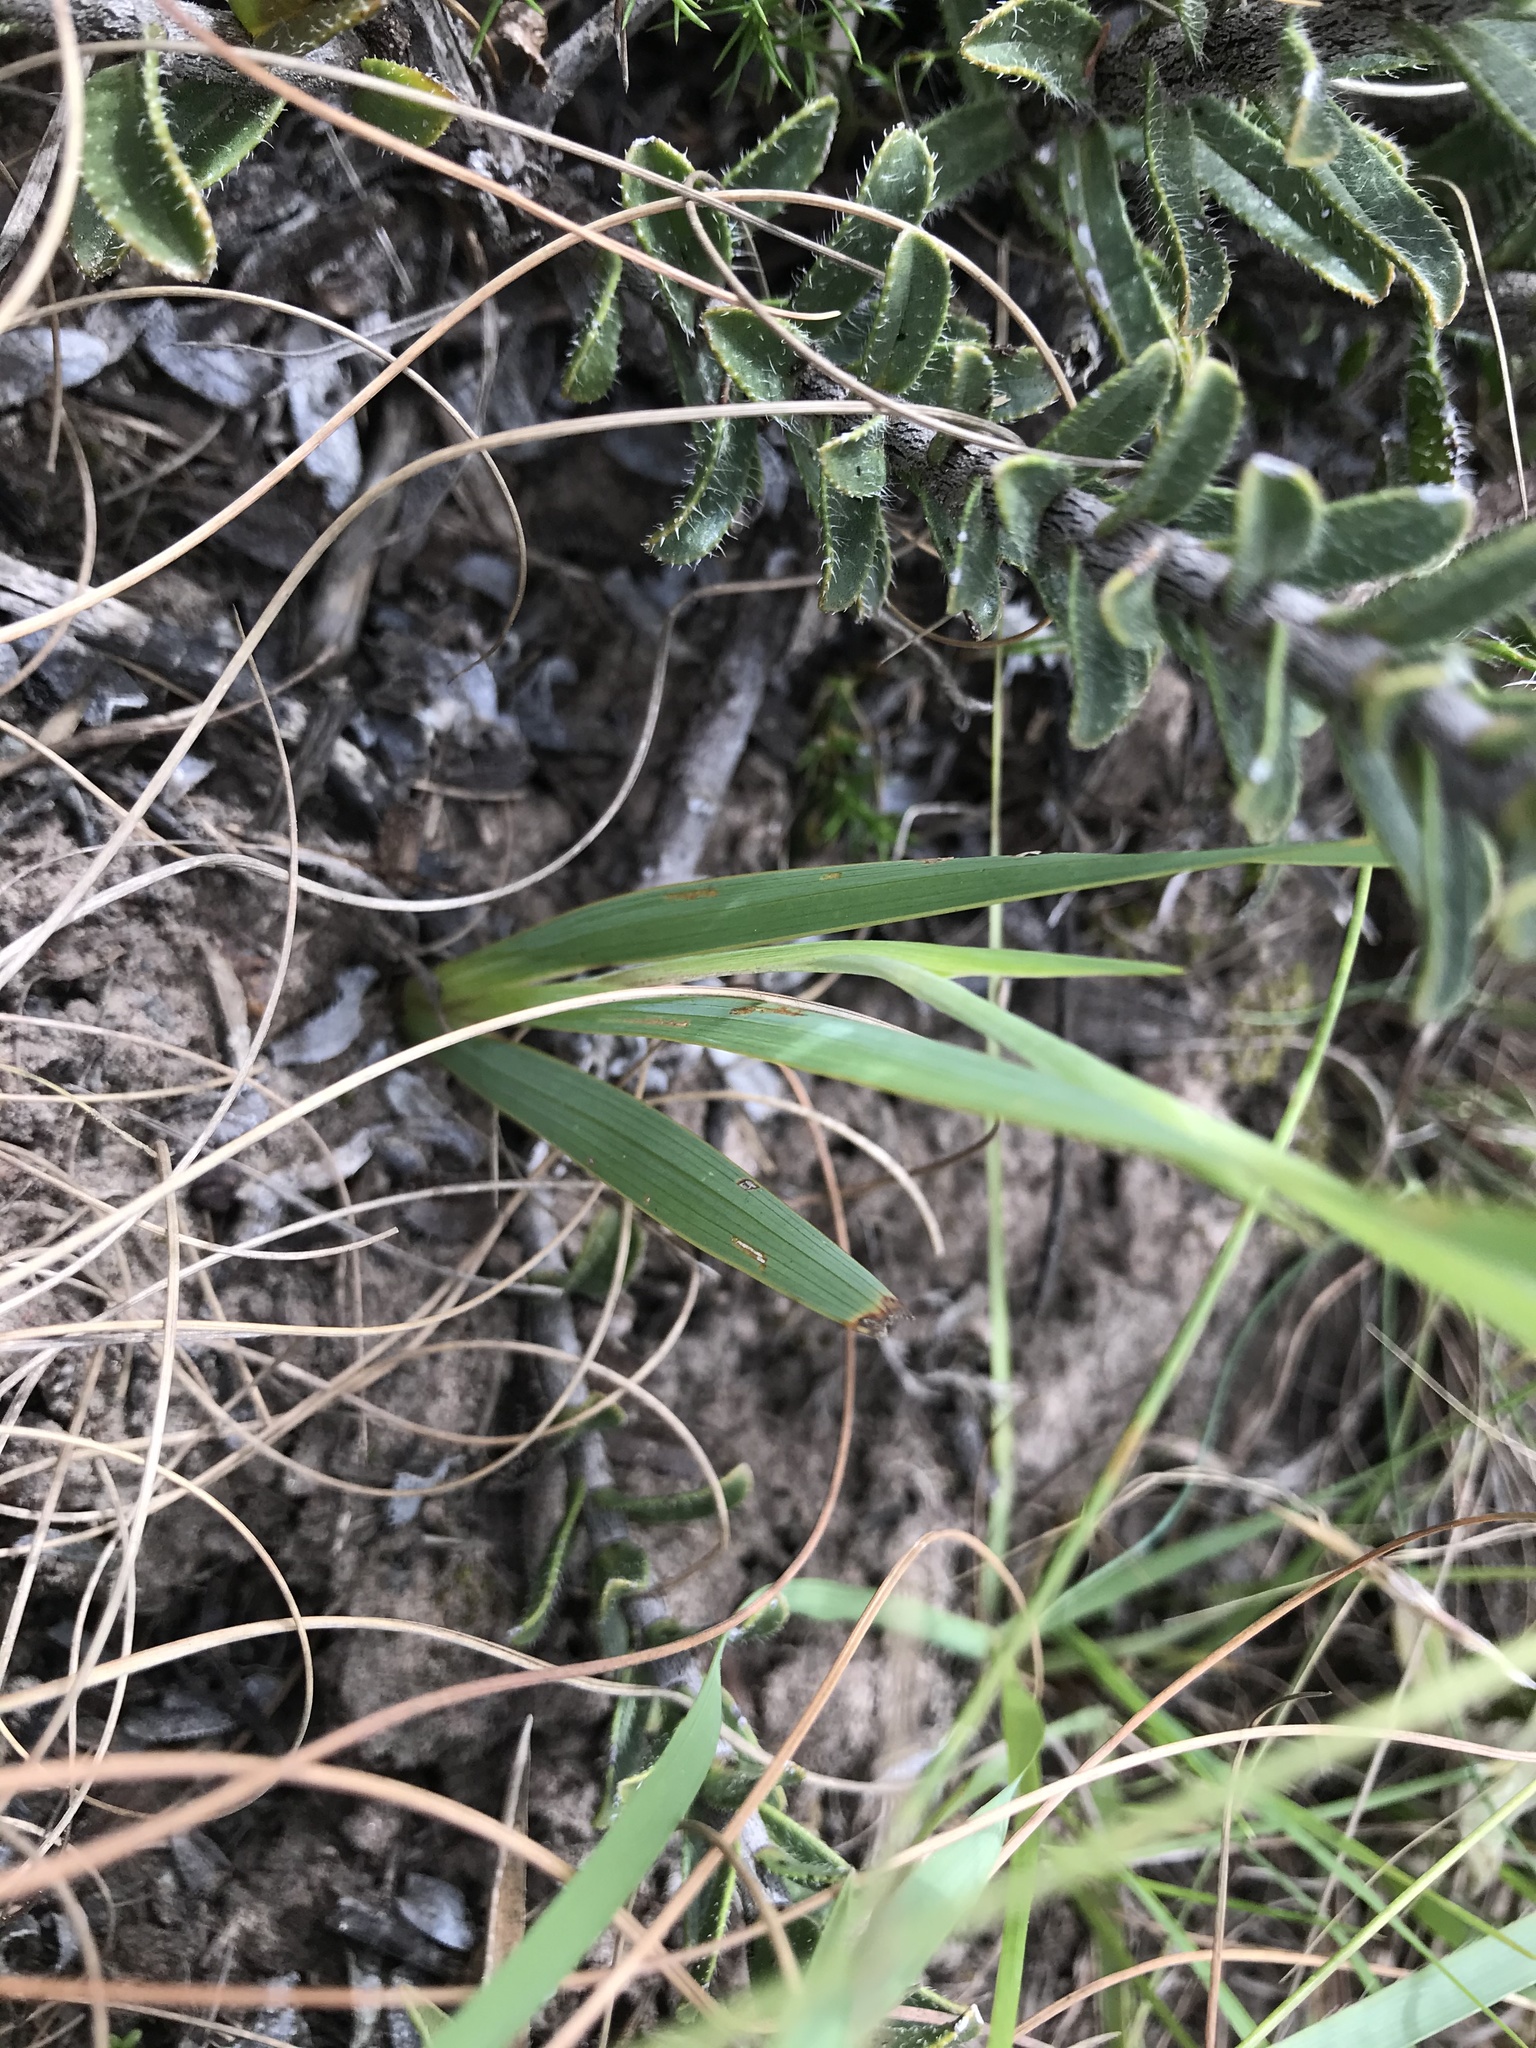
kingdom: Plantae
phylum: Tracheophyta
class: Liliopsida
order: Asparagales
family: Iridaceae
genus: Gladiolus
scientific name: Gladiolus floribundus
